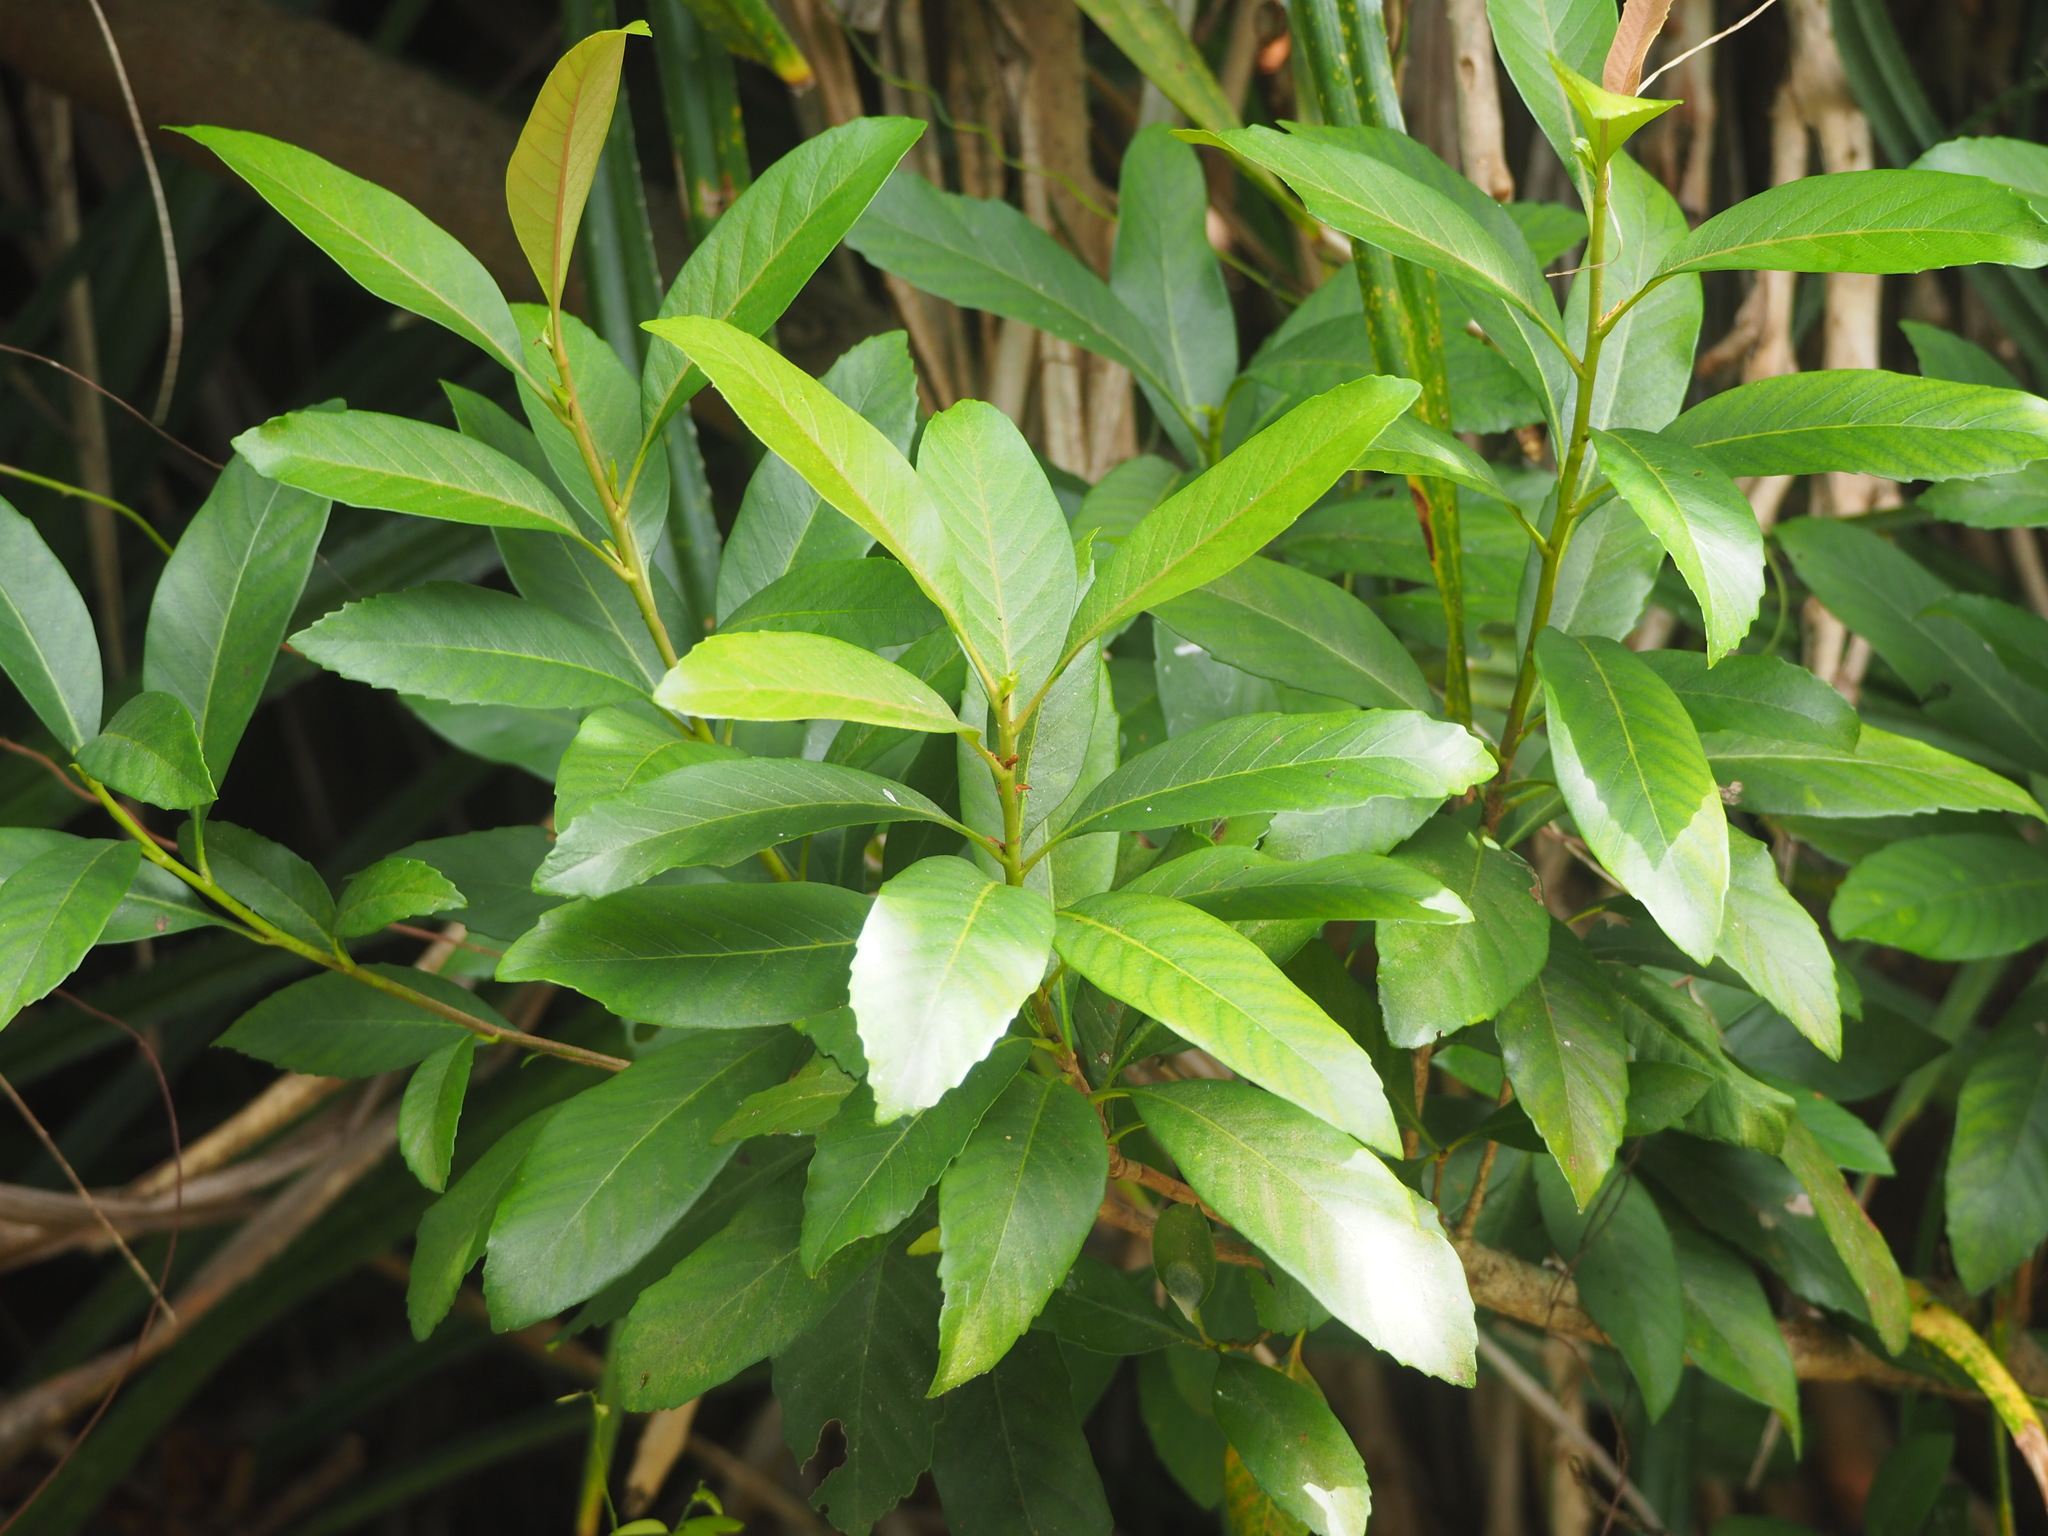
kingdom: Plantae
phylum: Tracheophyta
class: Magnoliopsida
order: Rosales
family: Rosaceae
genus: Rhaphiolepis
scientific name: Rhaphiolepis deflexa
